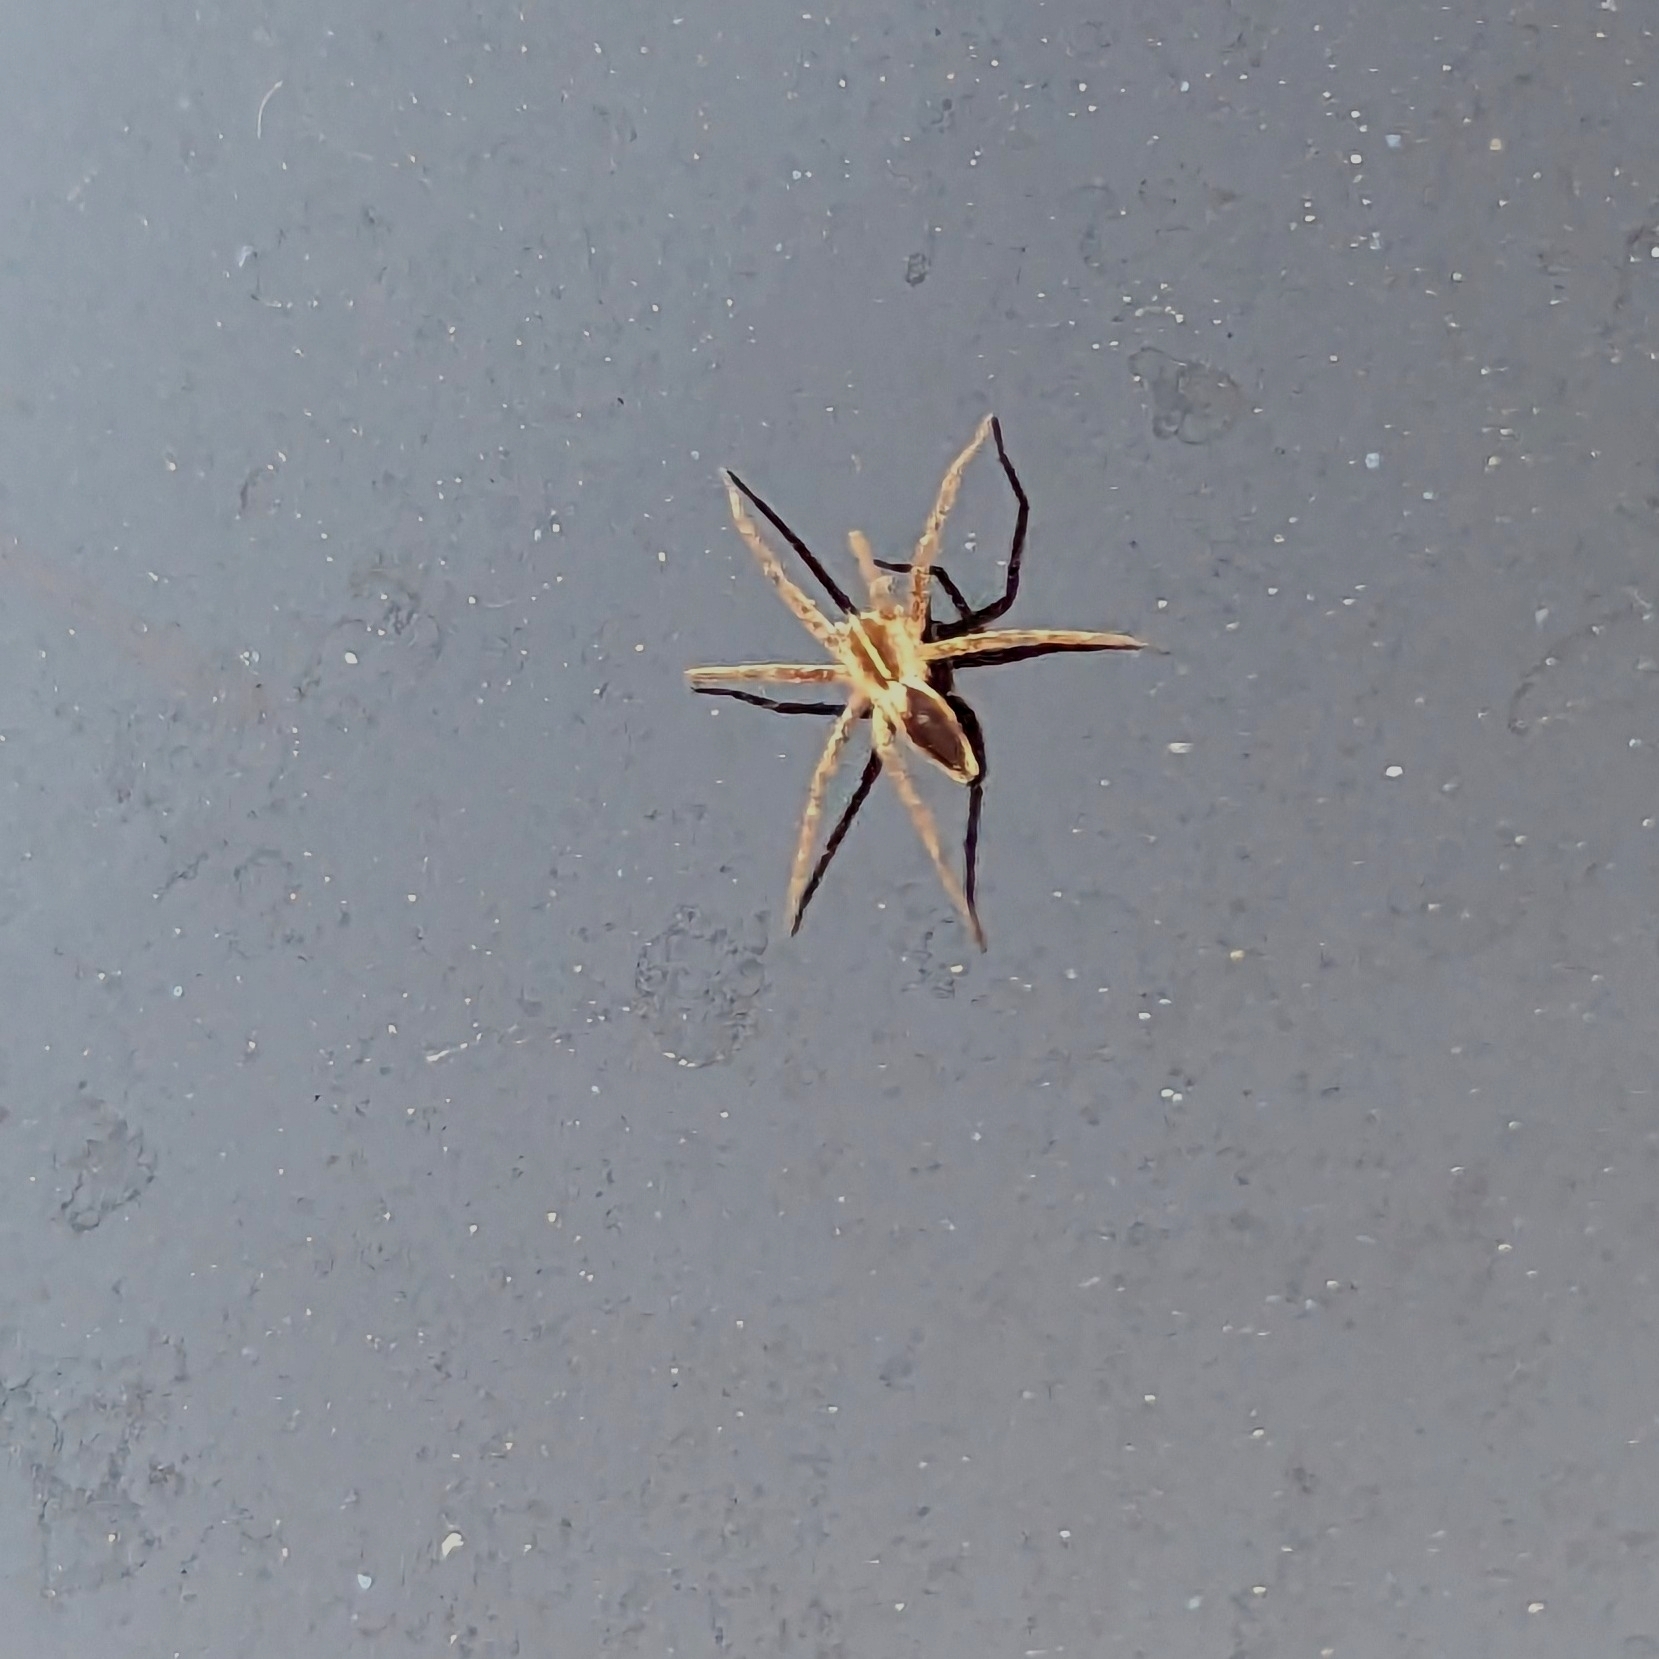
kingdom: Animalia
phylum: Arthropoda
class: Arachnida
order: Araneae
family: Pisauridae
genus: Pisaura
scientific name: Pisaura mirabilis
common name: Tent spider
